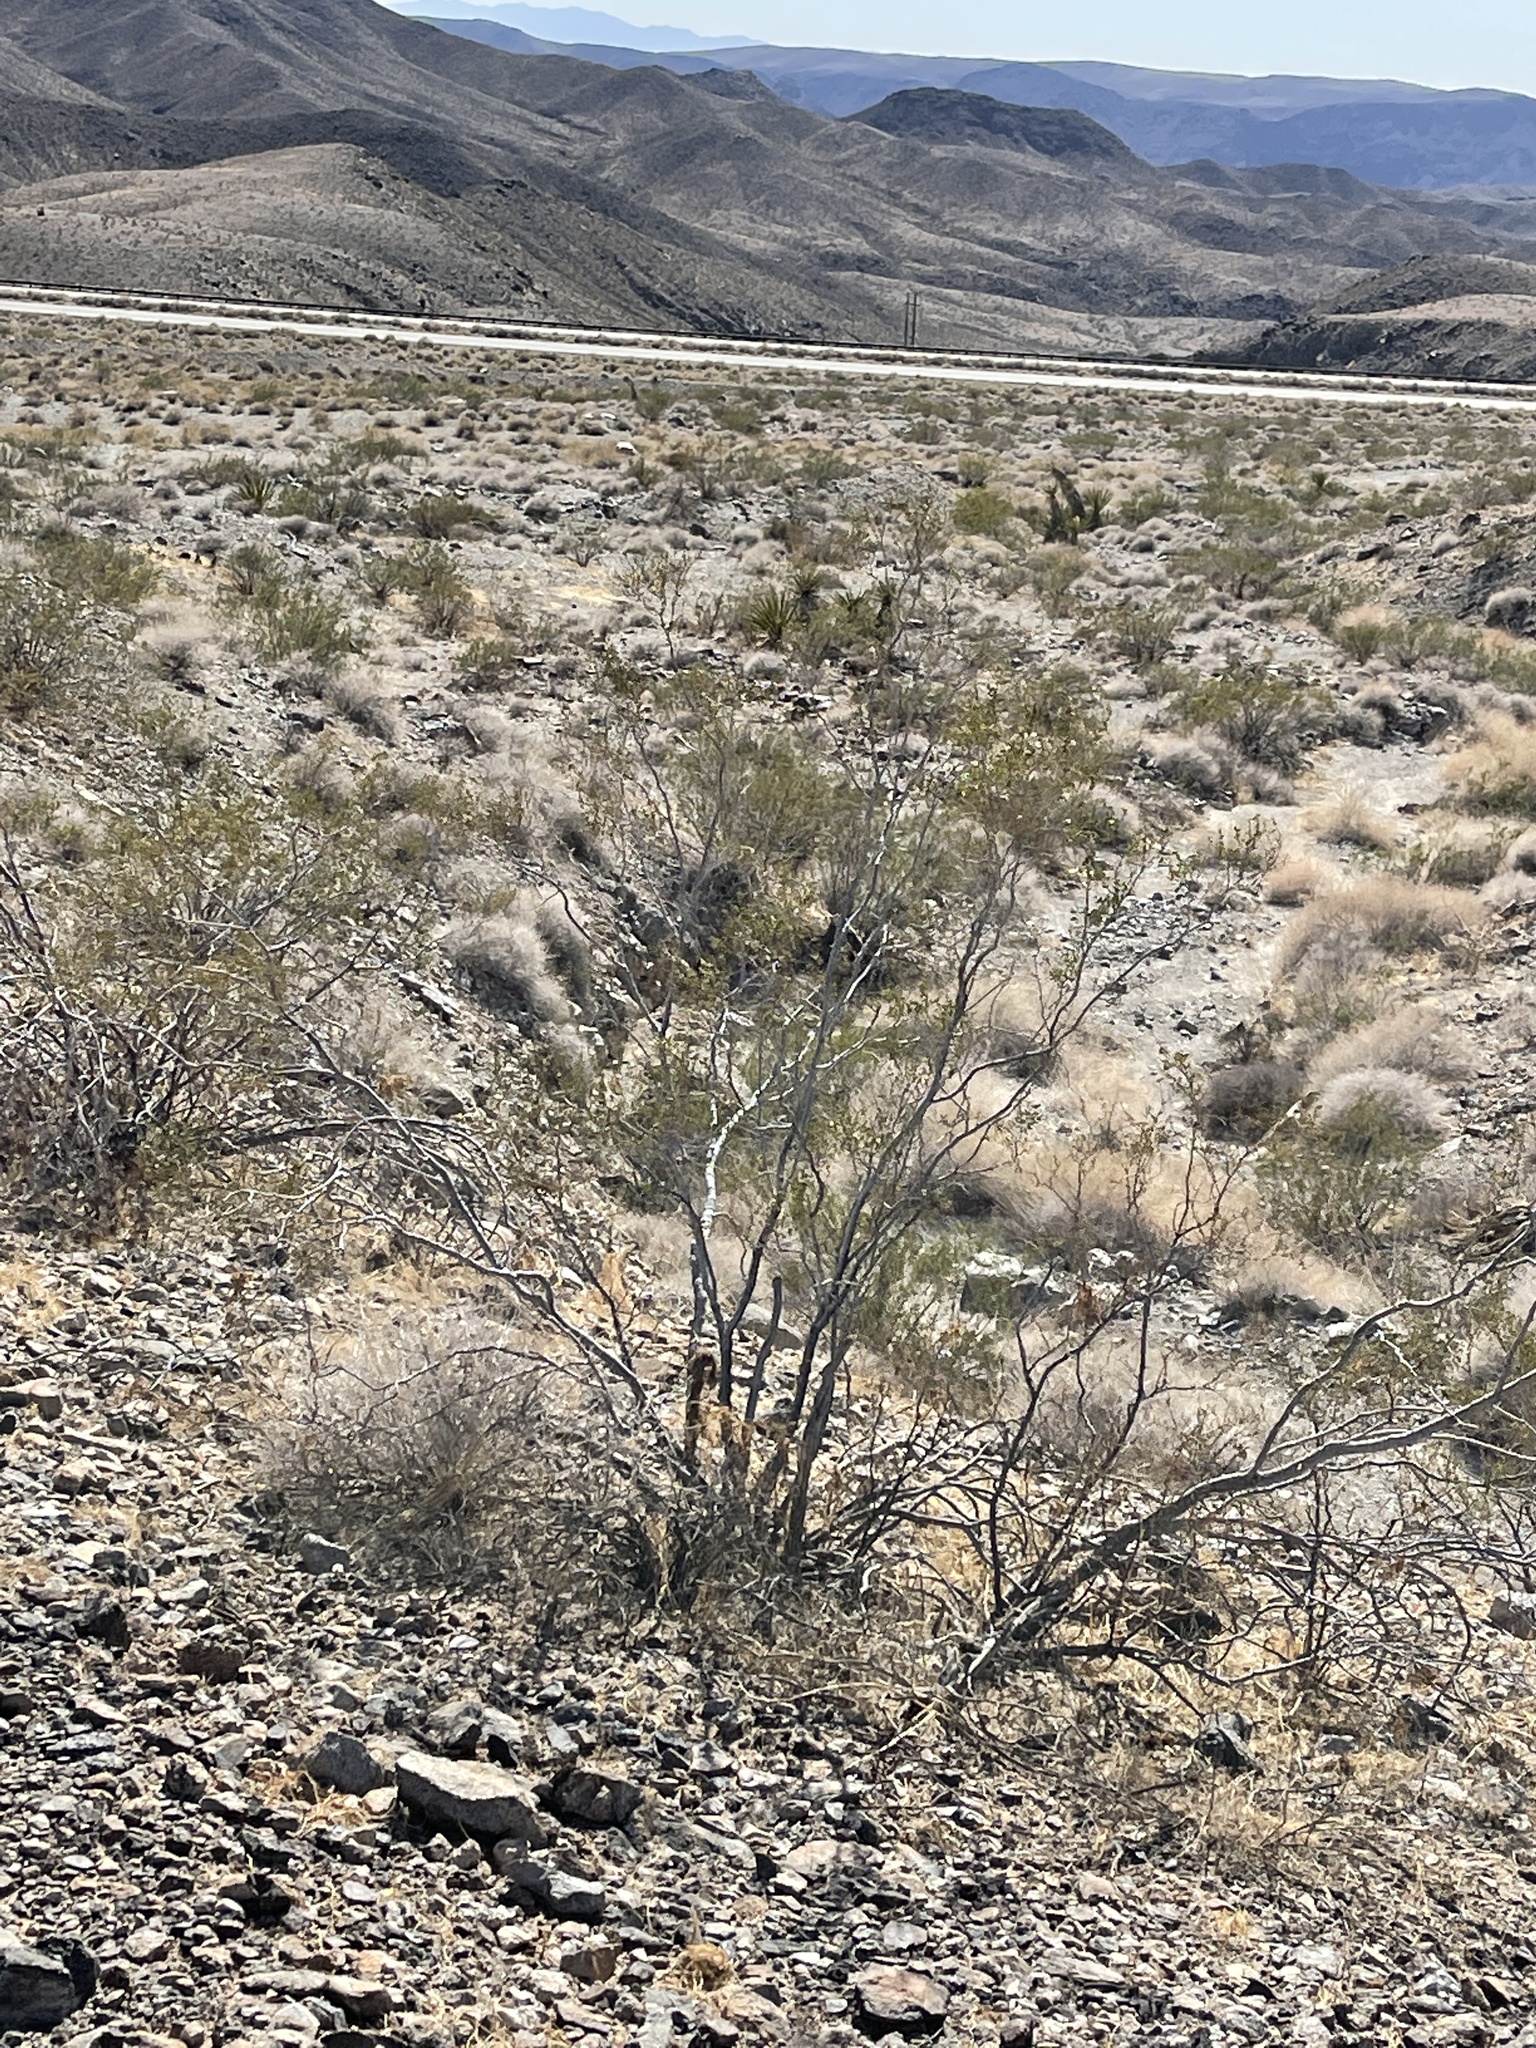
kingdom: Plantae
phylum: Tracheophyta
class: Magnoliopsida
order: Zygophyllales
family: Zygophyllaceae
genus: Larrea
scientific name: Larrea tridentata
